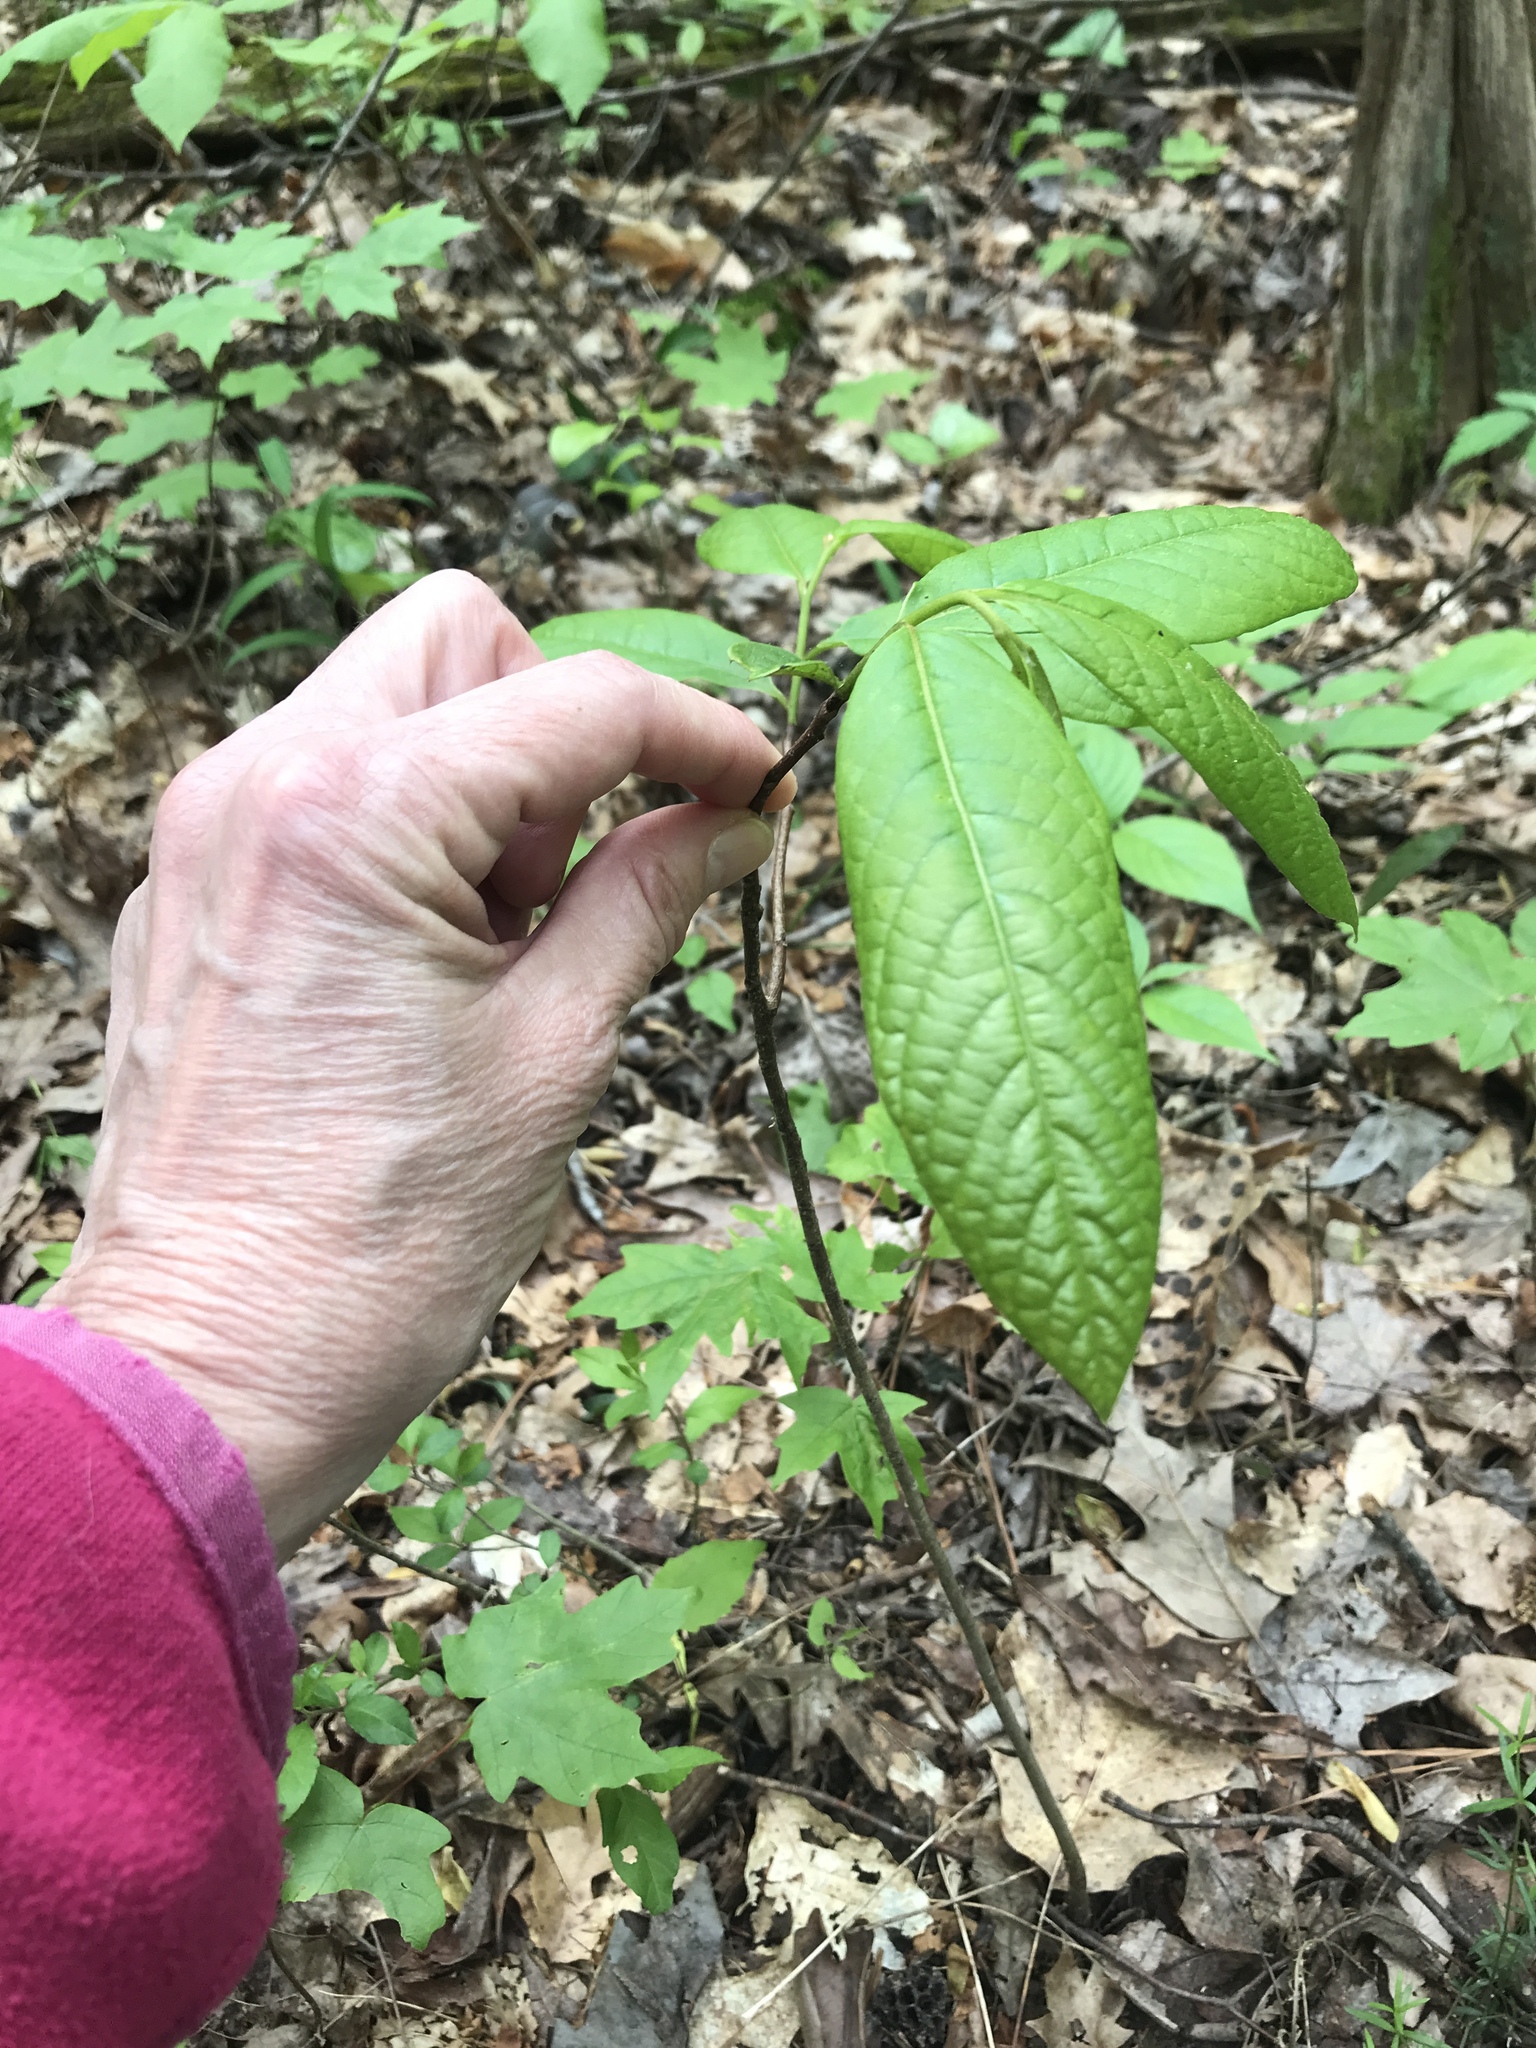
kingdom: Plantae
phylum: Tracheophyta
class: Magnoliopsida
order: Magnoliales
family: Annonaceae
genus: Asimina
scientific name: Asimina triloba
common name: Dog-banana
